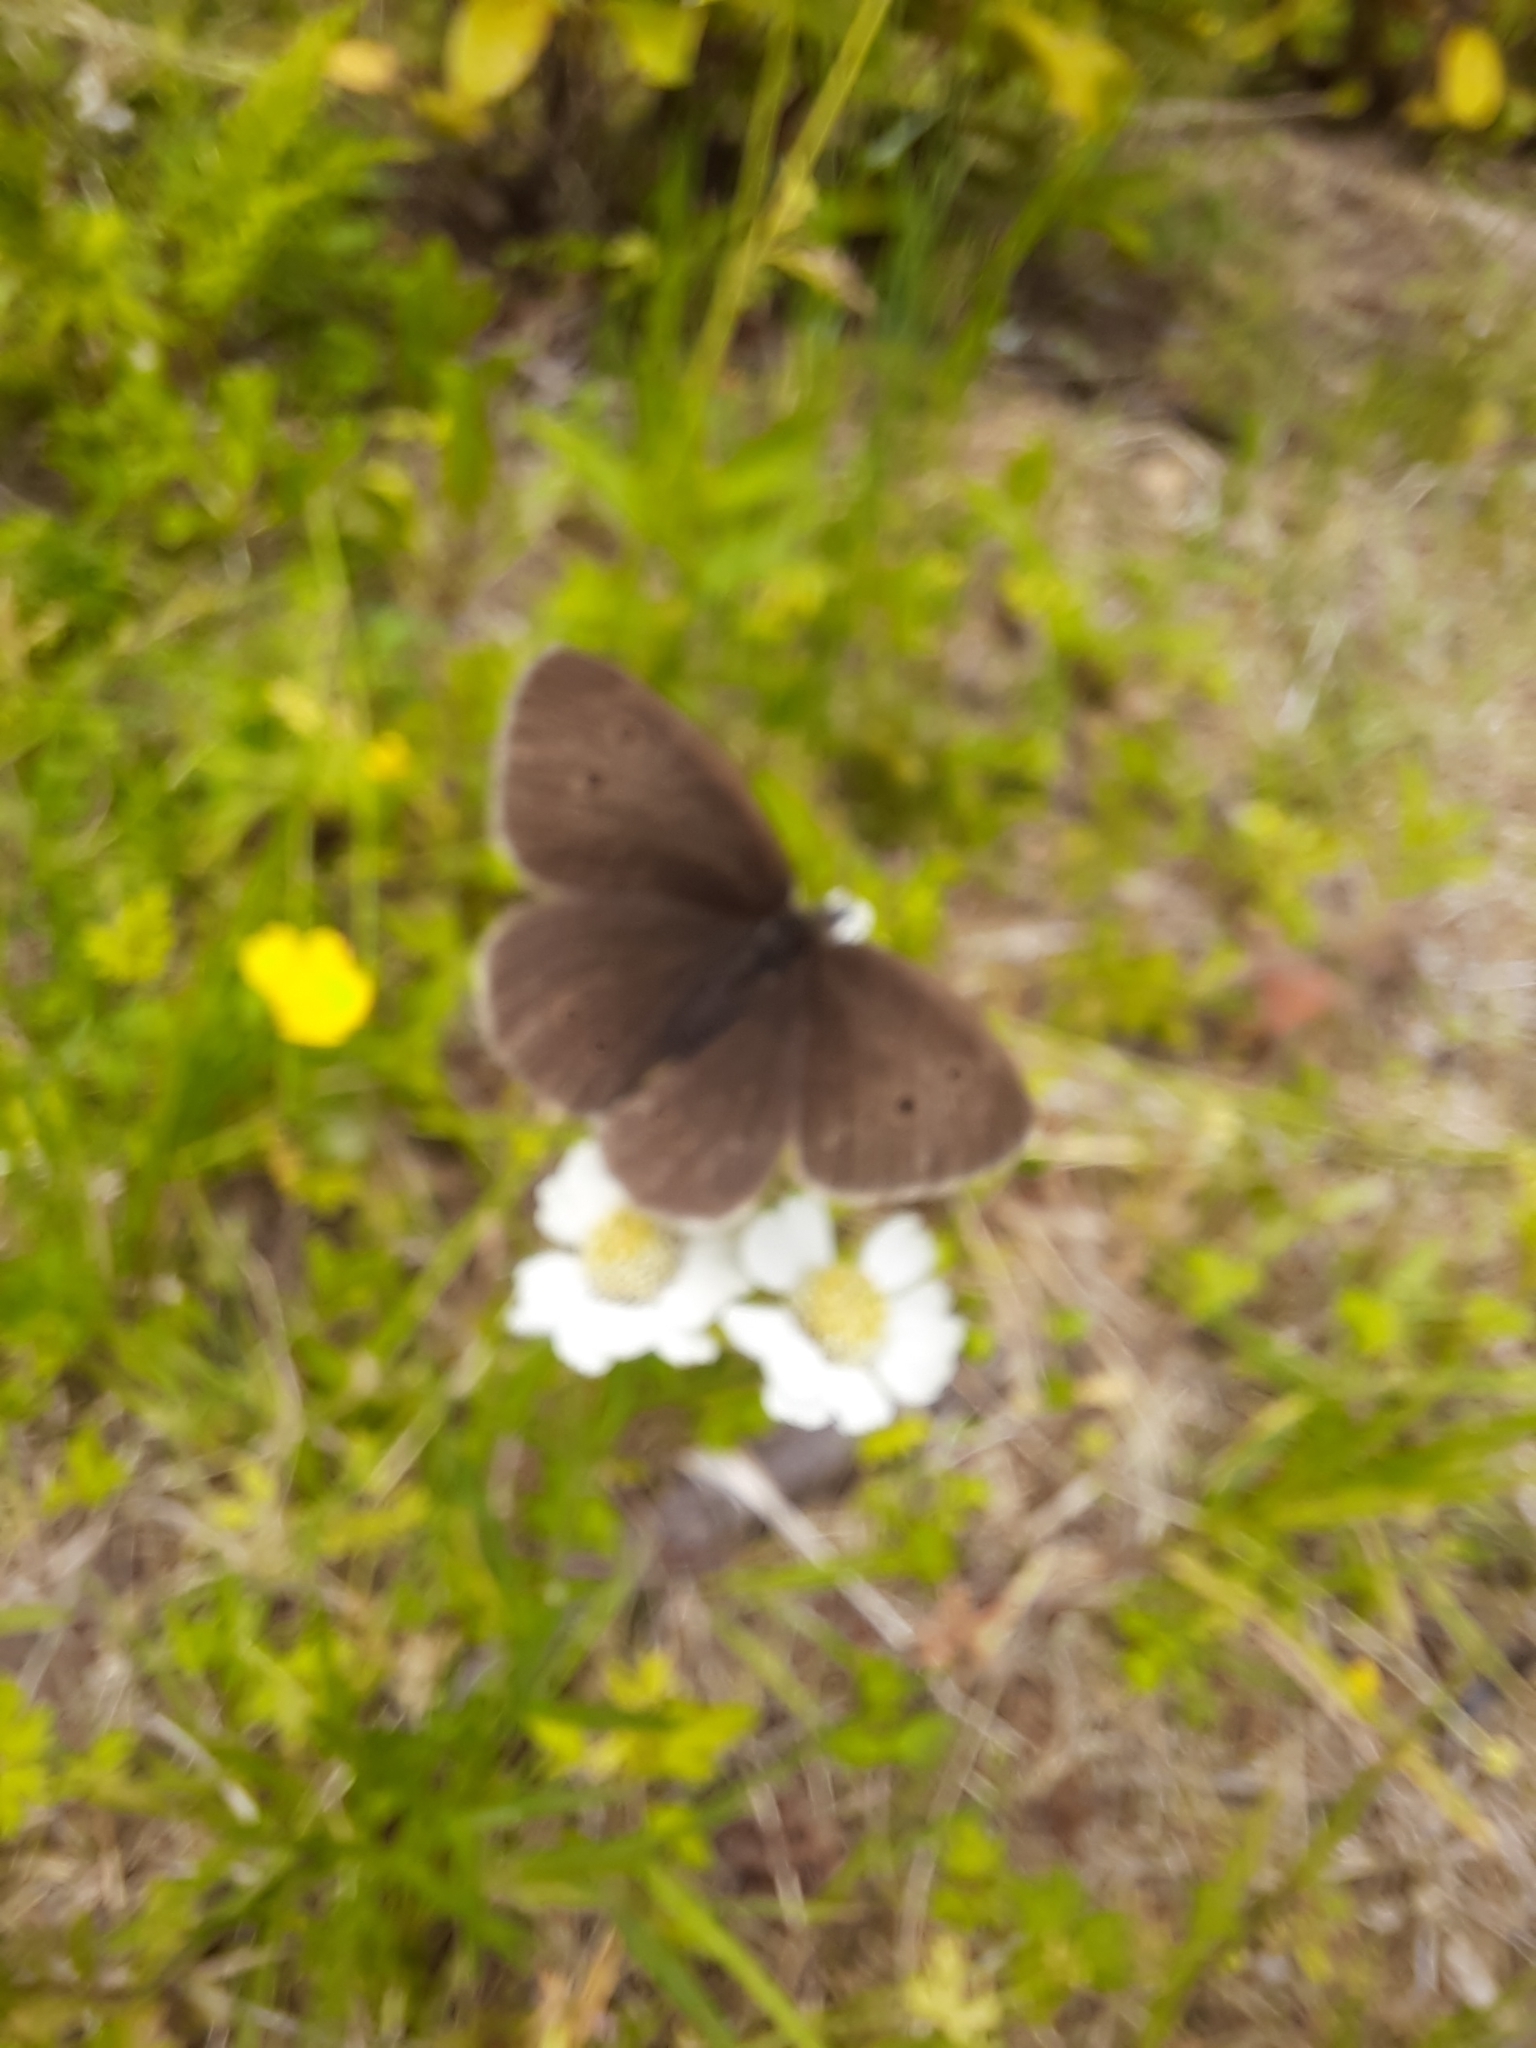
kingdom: Animalia
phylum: Arthropoda
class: Insecta
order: Lepidoptera
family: Nymphalidae
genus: Aphantopus
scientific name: Aphantopus hyperantus
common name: Ringlet
